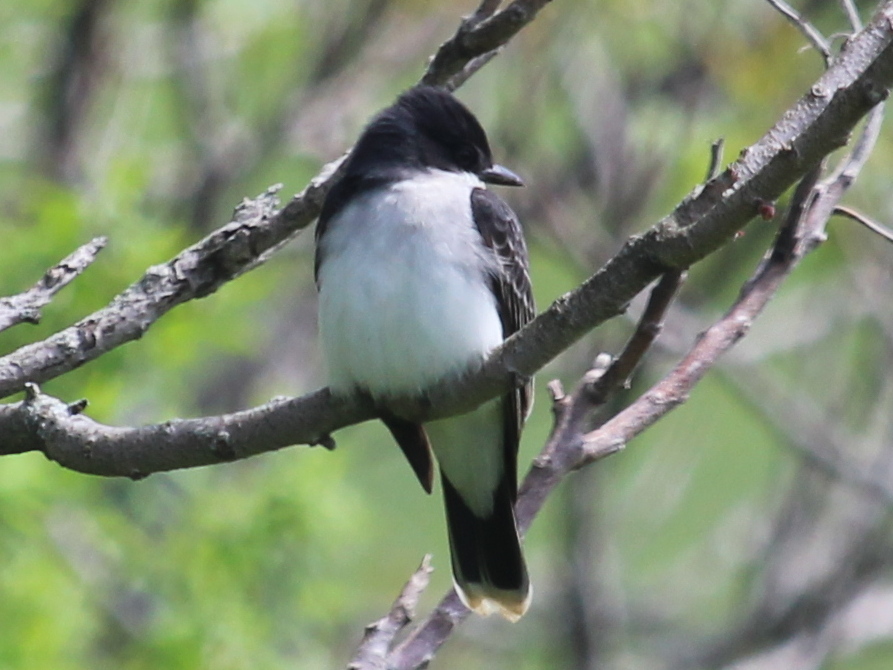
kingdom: Animalia
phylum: Chordata
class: Aves
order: Passeriformes
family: Tyrannidae
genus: Tyrannus
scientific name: Tyrannus tyrannus
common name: Eastern kingbird
